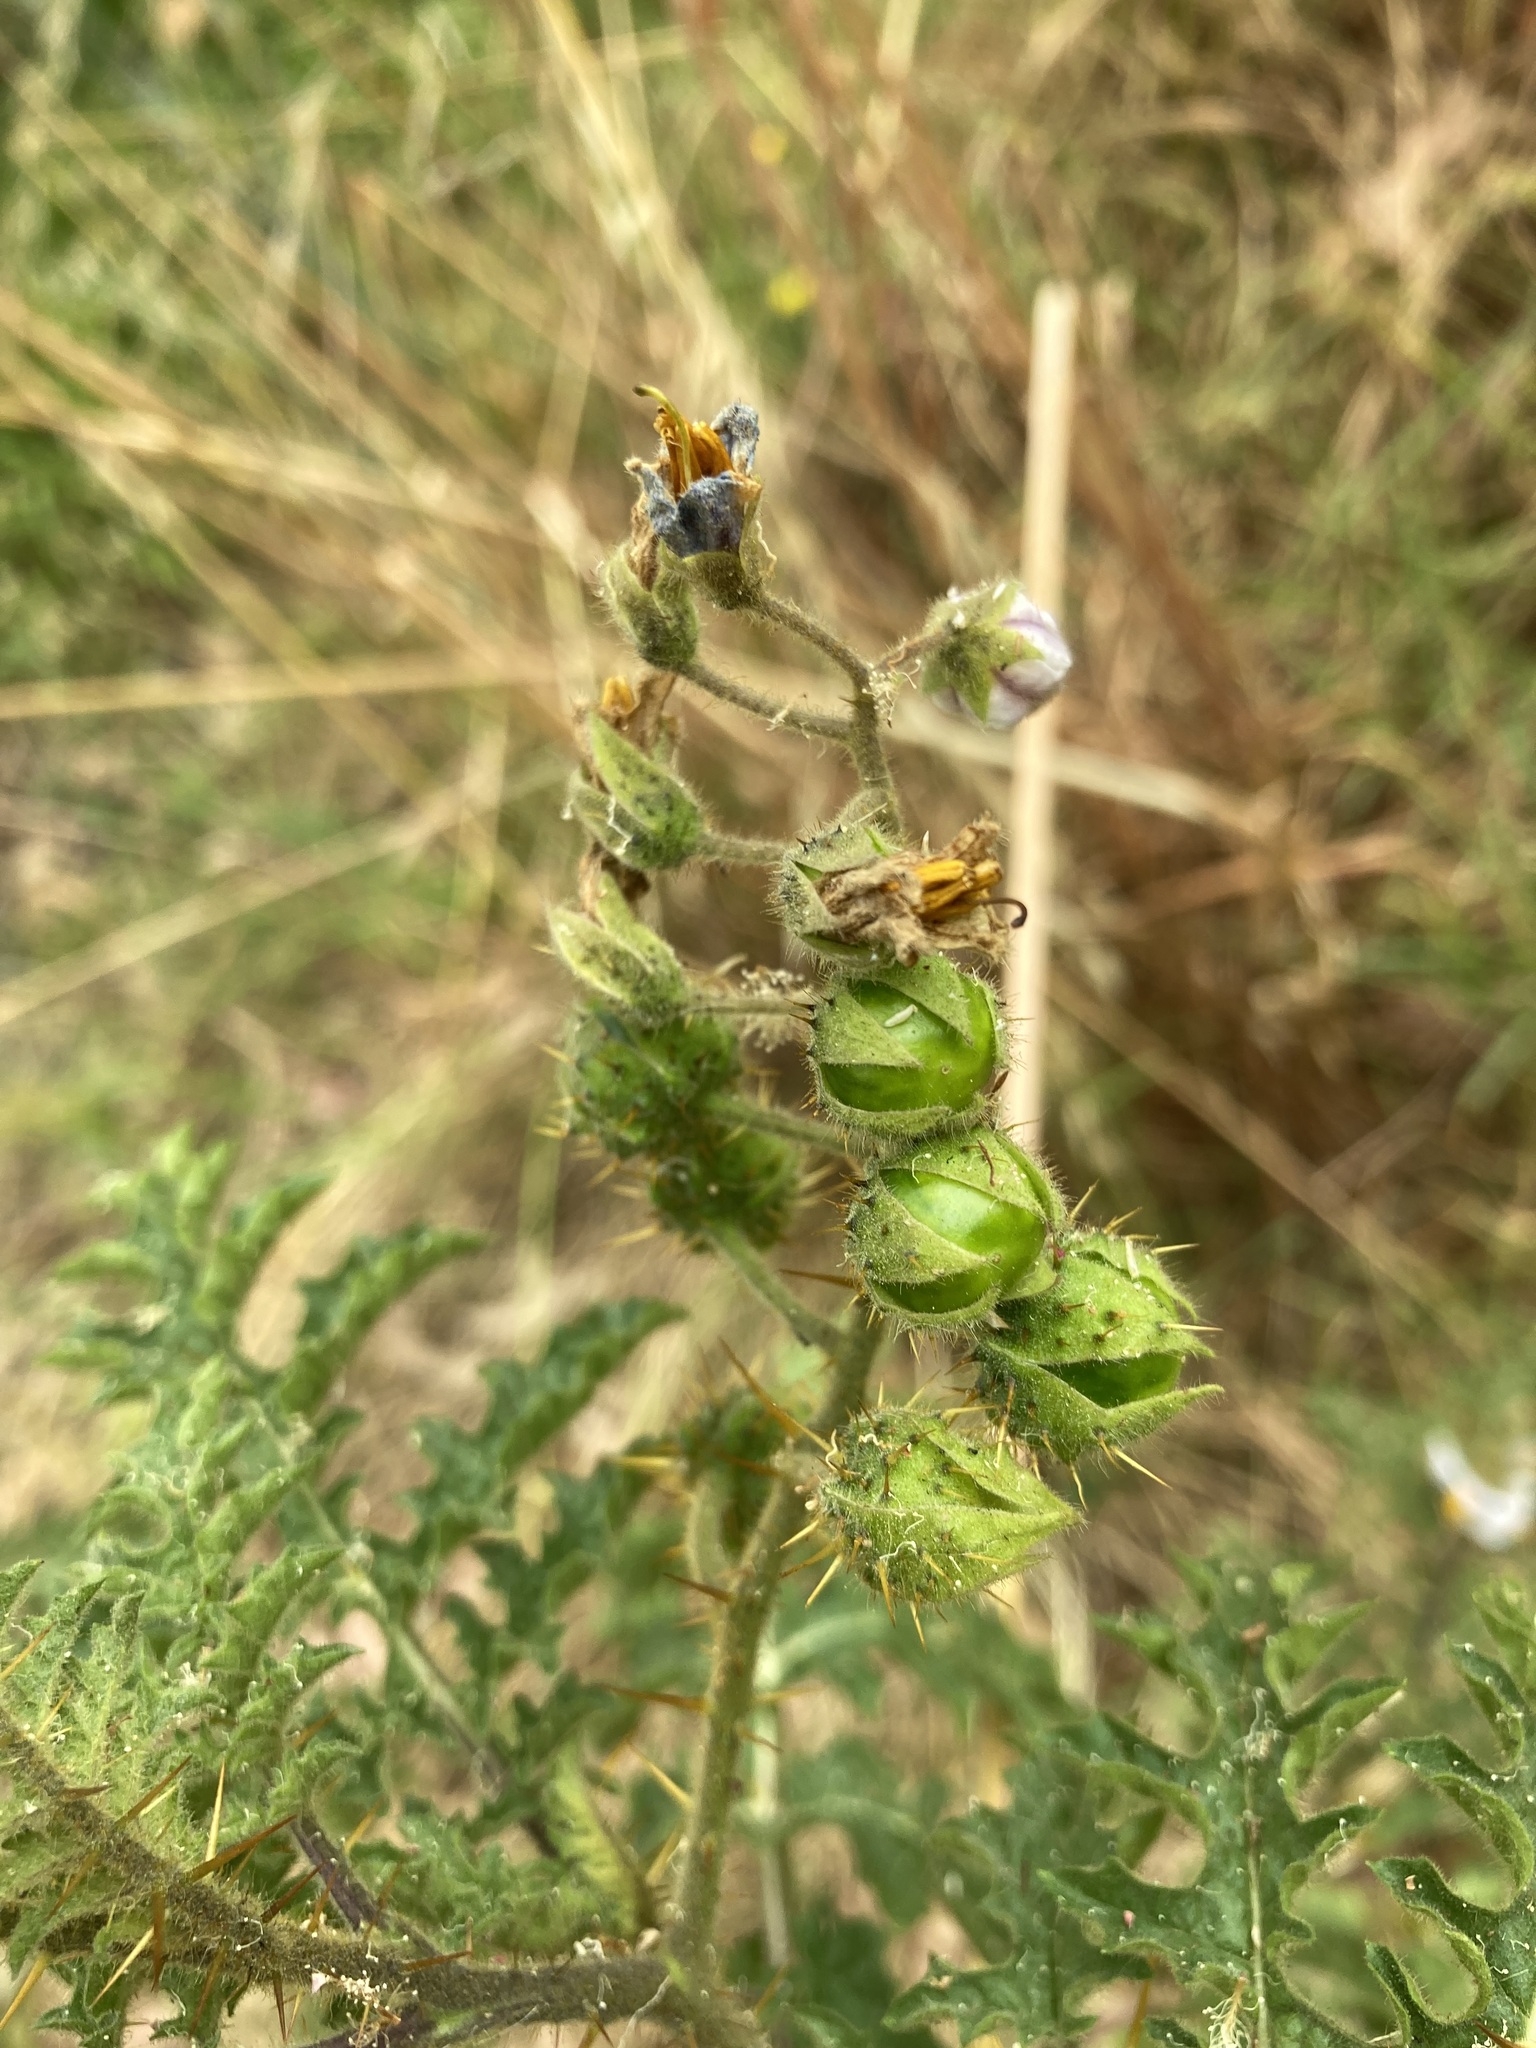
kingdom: Plantae
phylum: Tracheophyta
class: Magnoliopsida
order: Solanales
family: Solanaceae
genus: Solanum
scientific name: Solanum sisymbriifolium
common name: Red buffalo-bur
